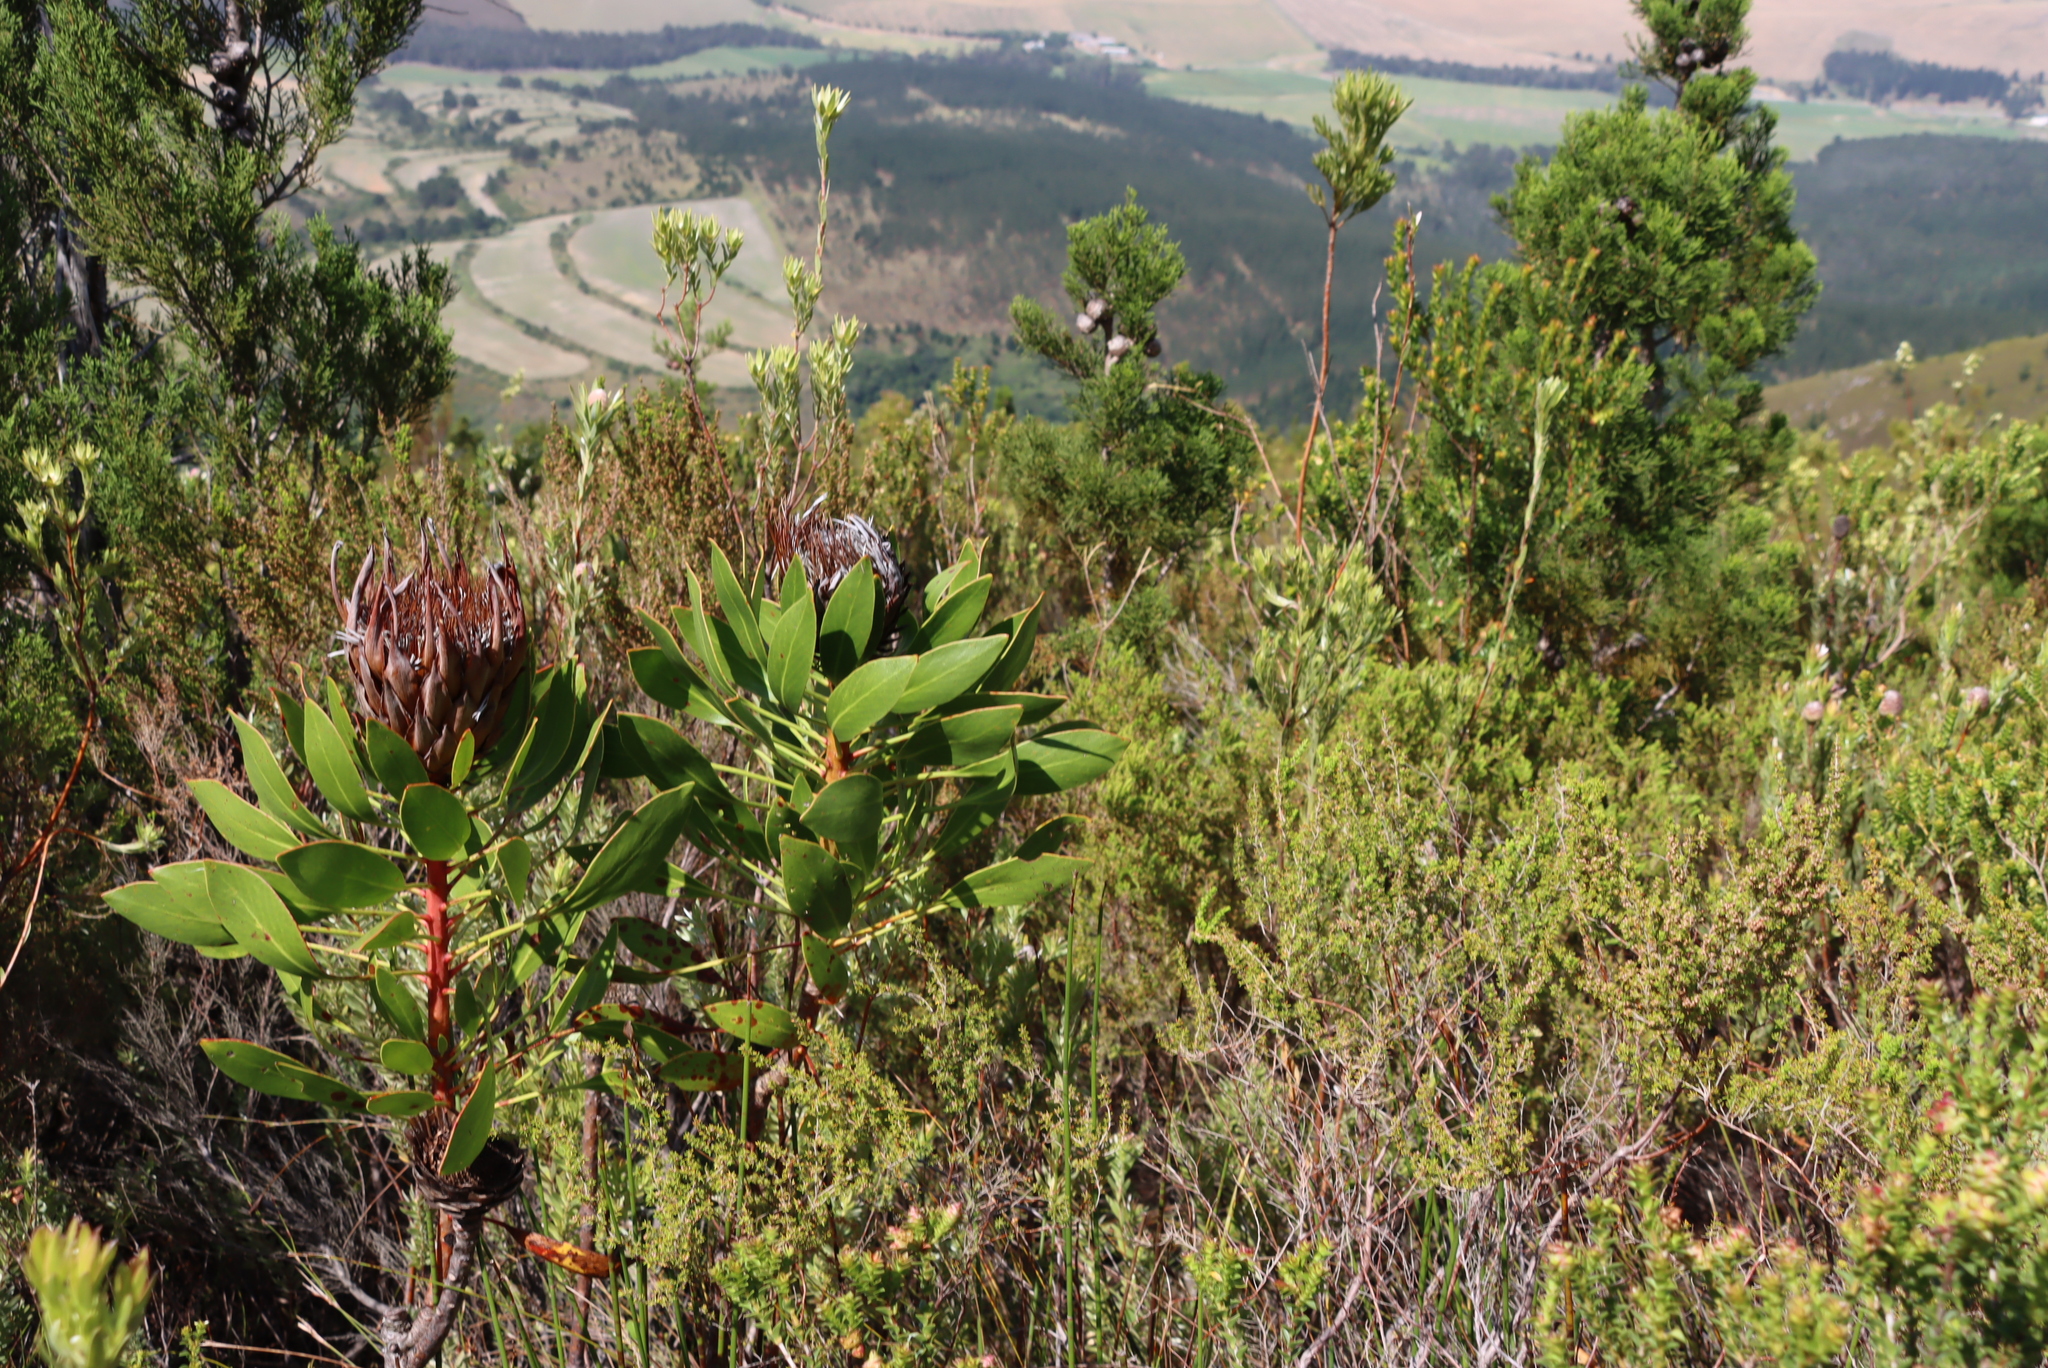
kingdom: Plantae
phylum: Tracheophyta
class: Magnoliopsida
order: Proteales
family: Proteaceae
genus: Protea
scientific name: Protea cynaroides
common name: King protea
